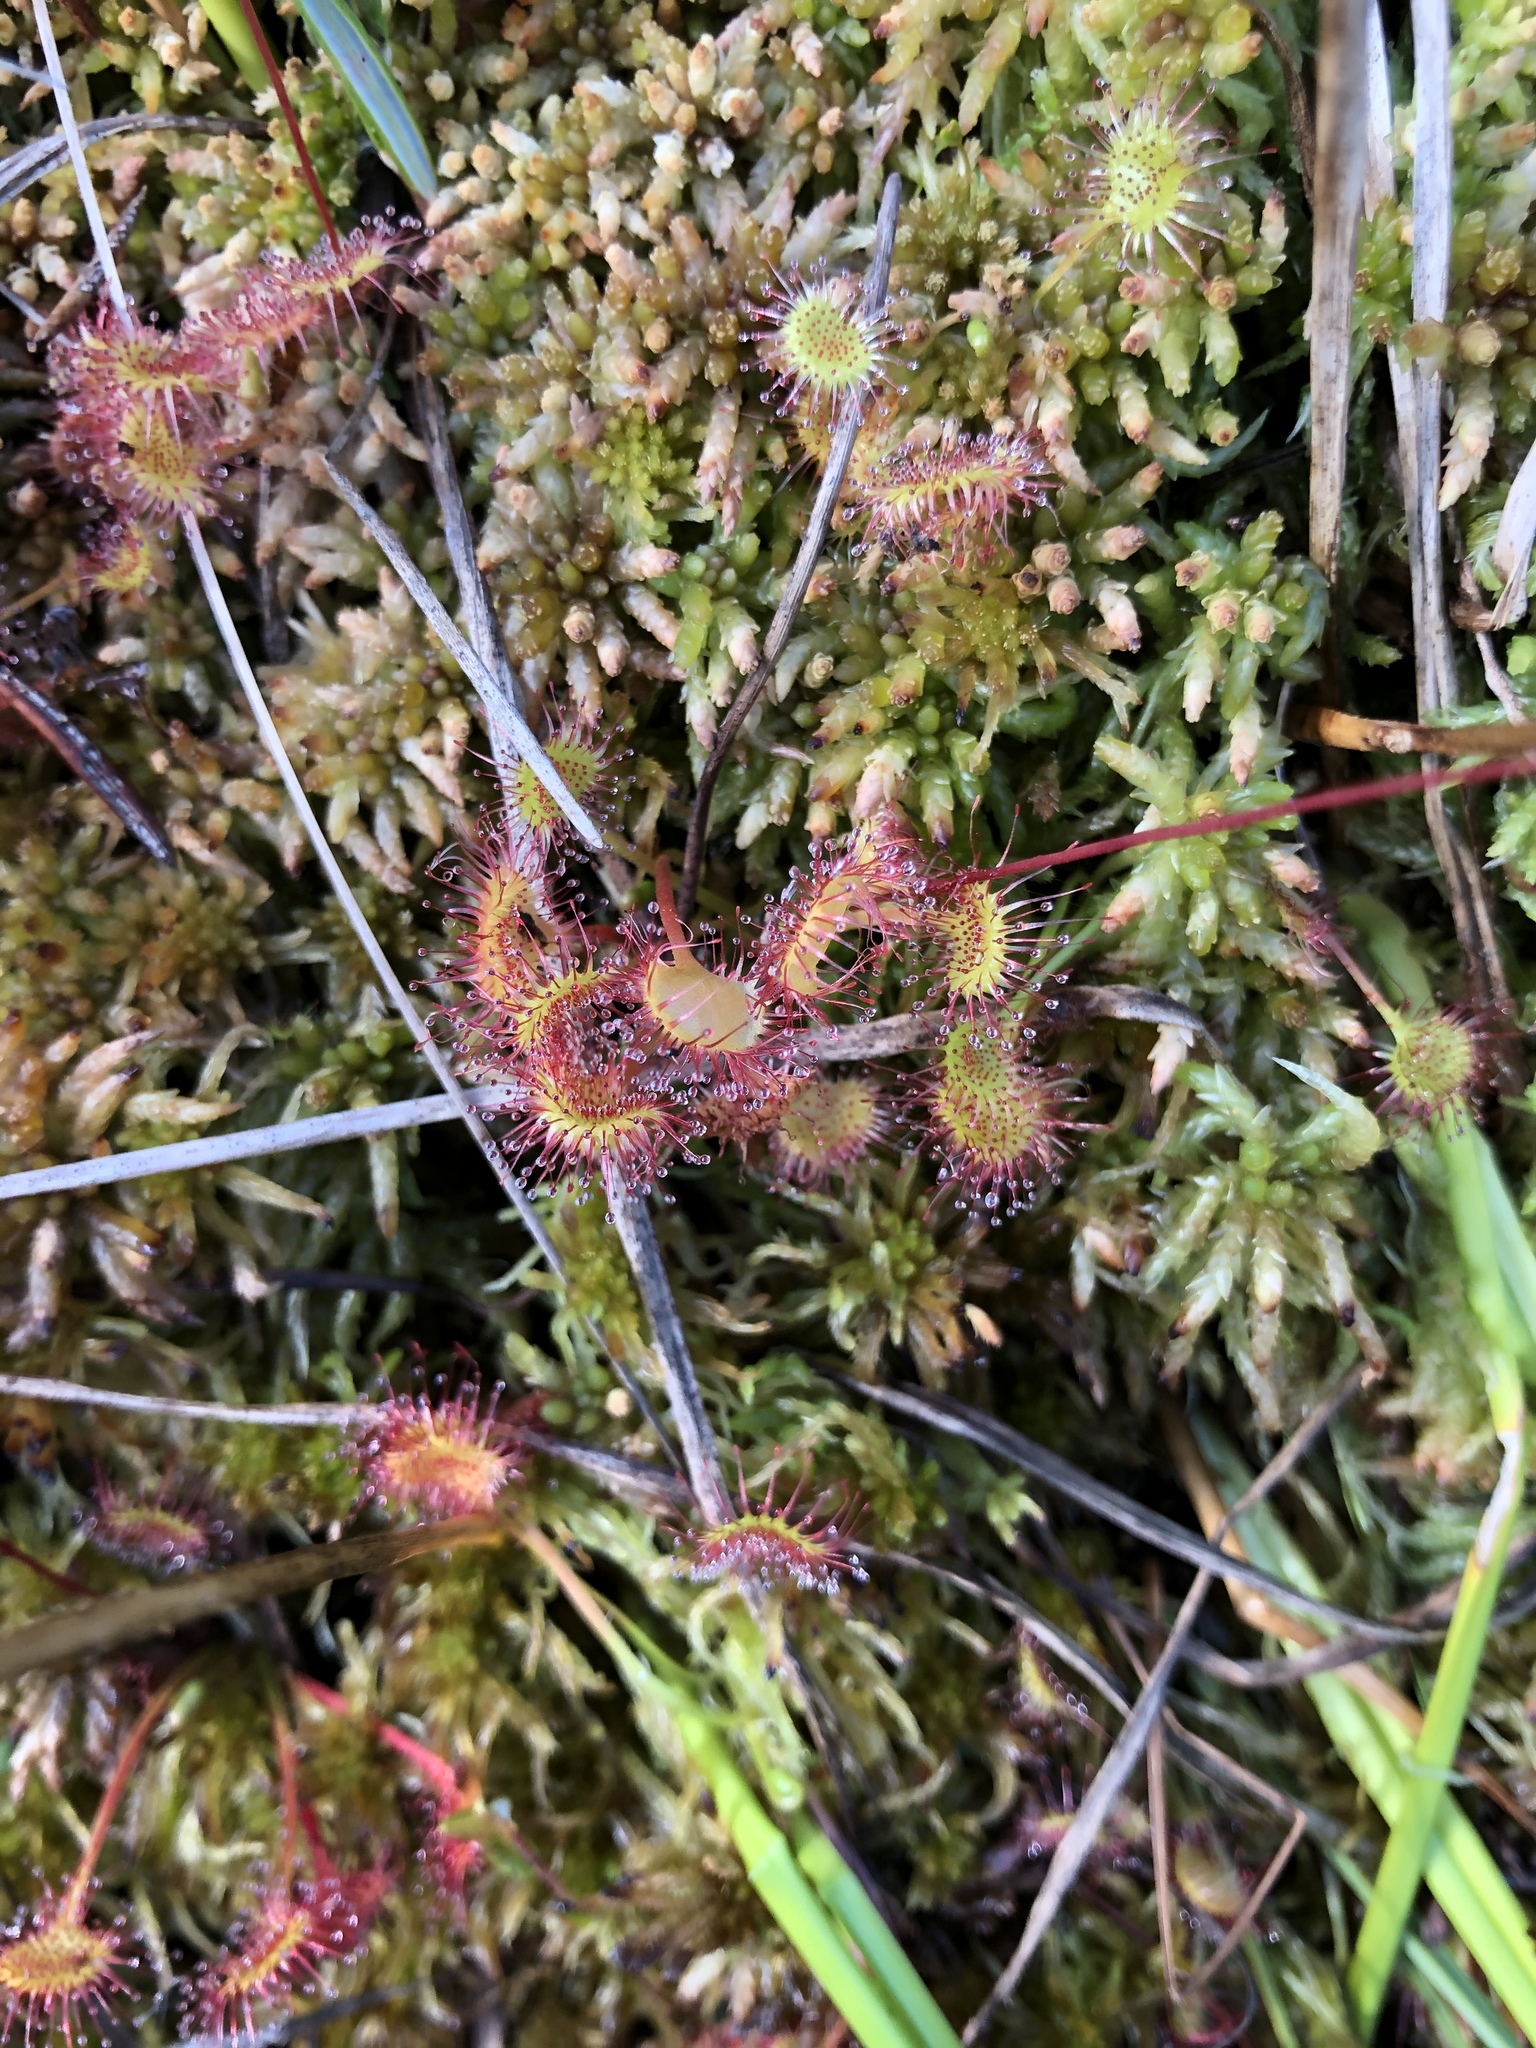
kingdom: Plantae
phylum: Tracheophyta
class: Magnoliopsida
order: Caryophyllales
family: Droseraceae
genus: Drosera
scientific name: Drosera rotundifolia
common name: Round-leaved sundew
